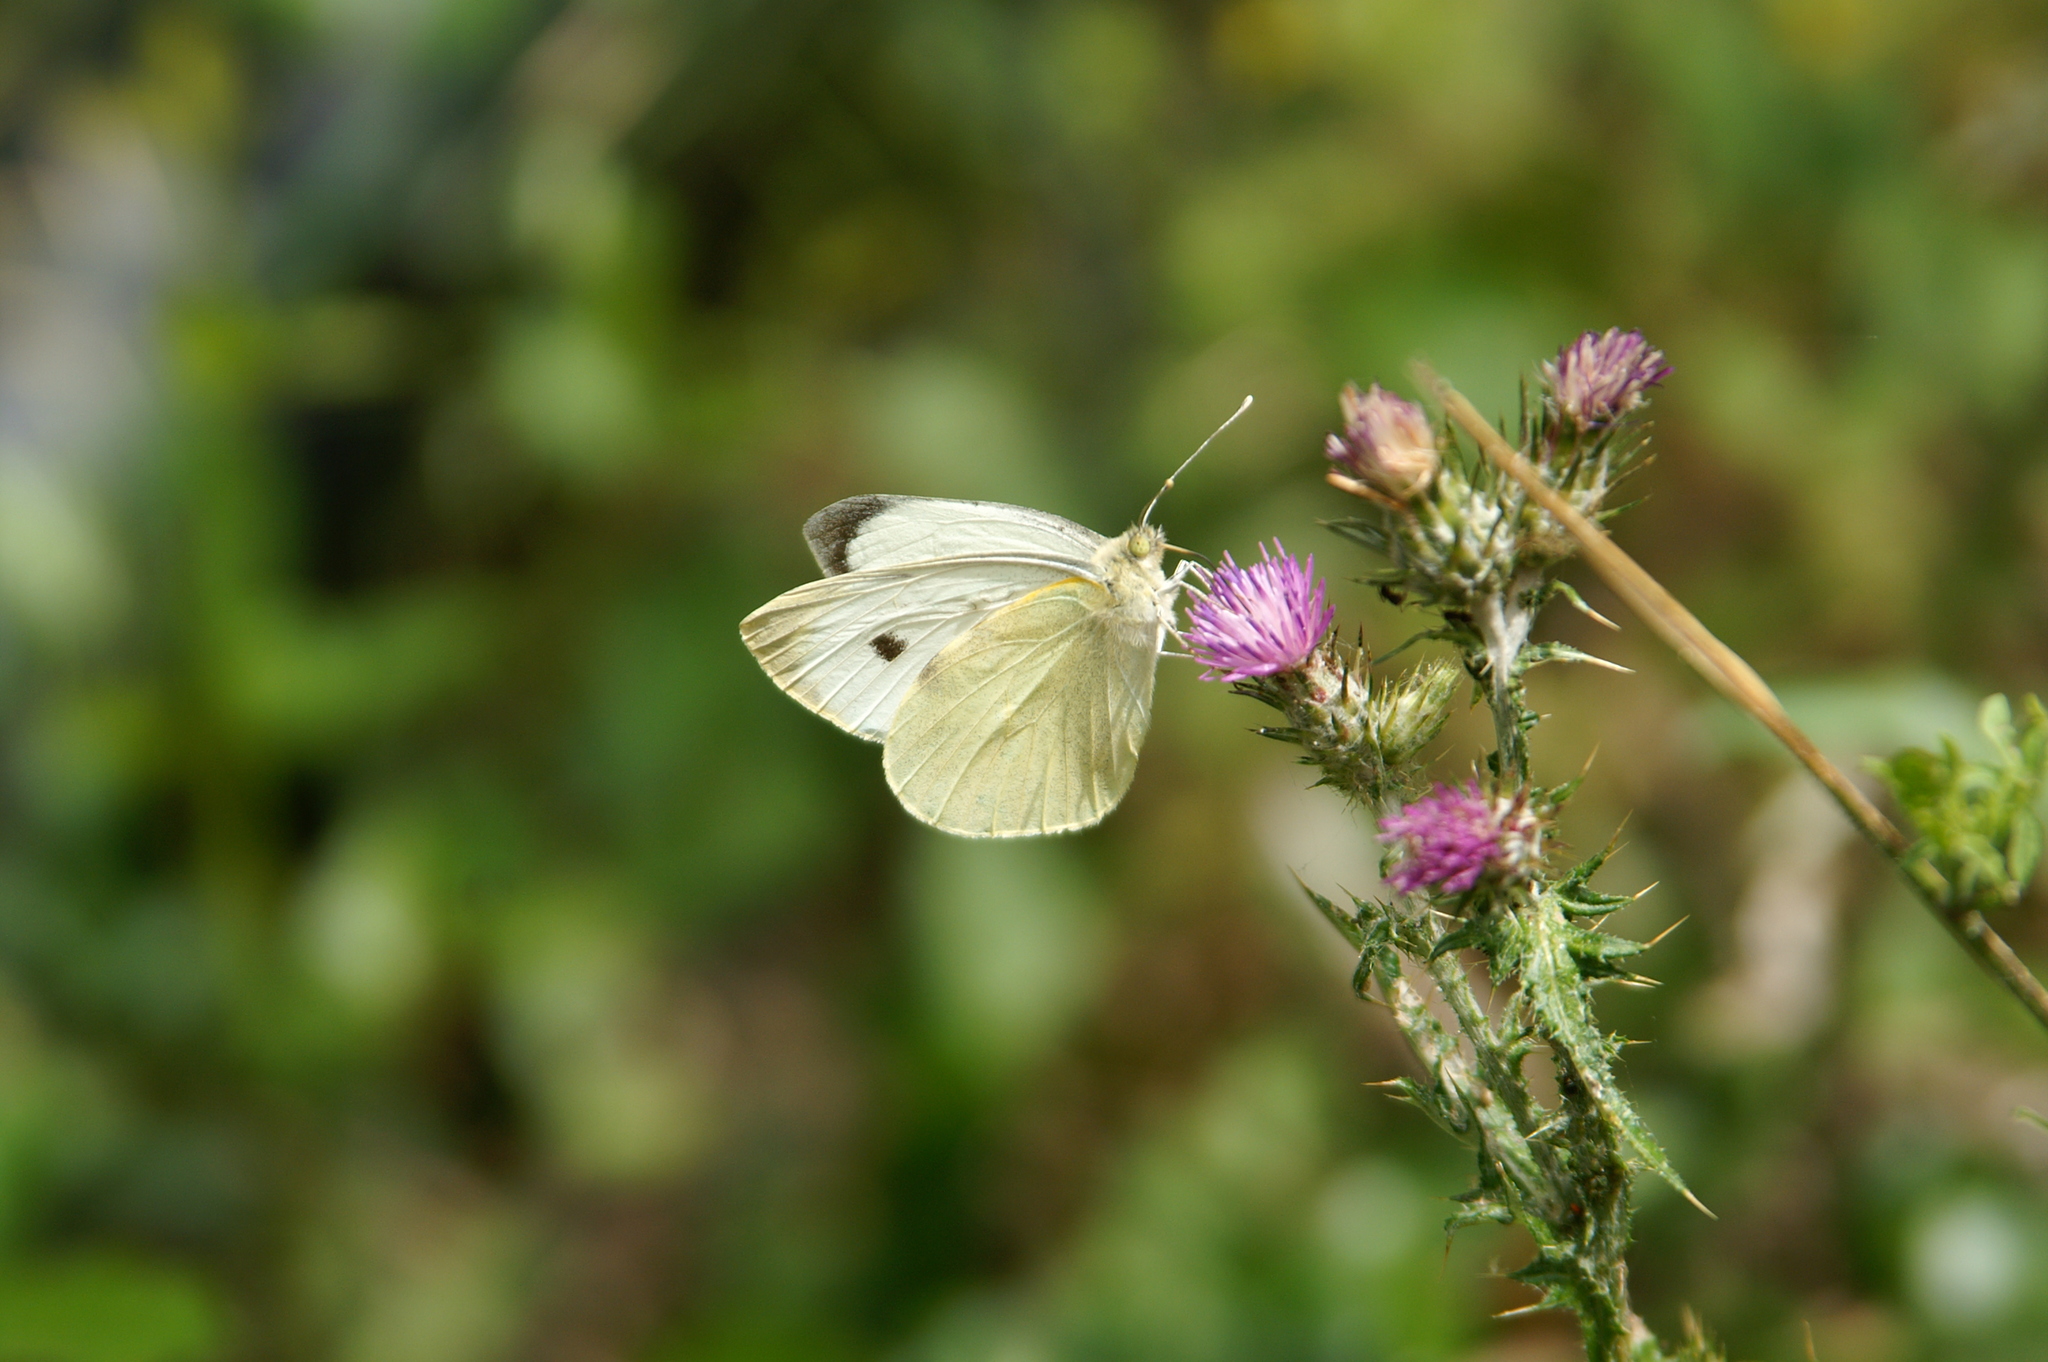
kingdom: Animalia
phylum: Arthropoda
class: Insecta
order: Lepidoptera
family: Pieridae
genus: Pieris
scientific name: Pieris brassicae
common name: Large white
